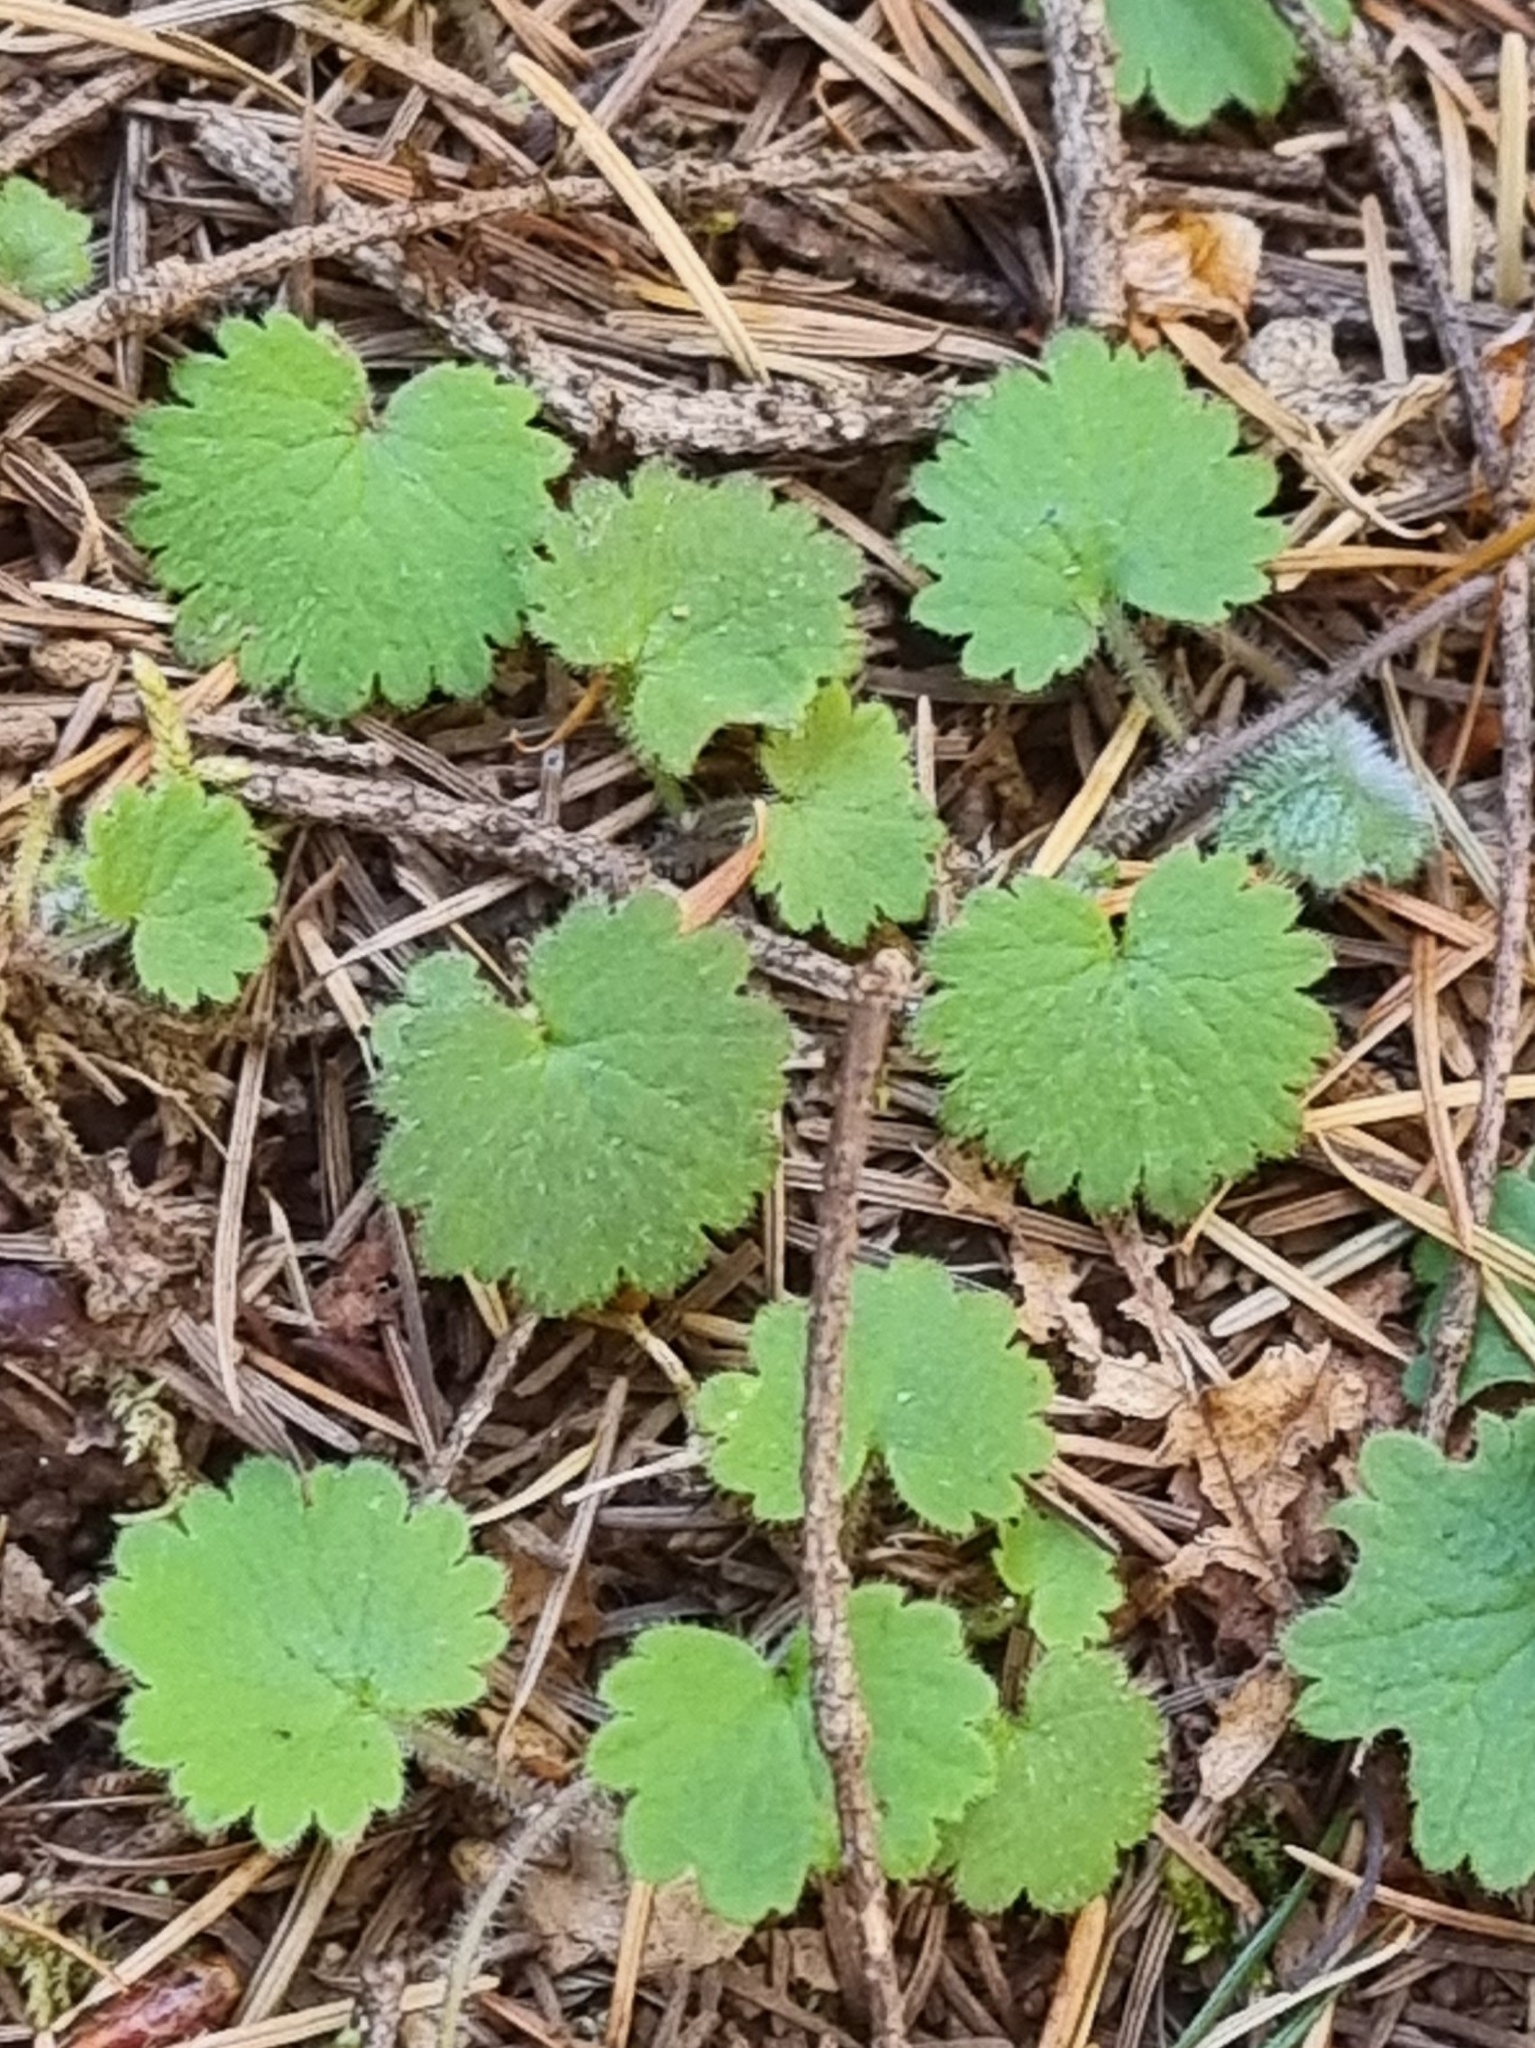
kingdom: Plantae
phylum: Tracheophyta
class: Magnoliopsida
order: Lamiales
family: Plantaginaceae
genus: Sibthorpia
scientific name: Sibthorpia peregrina
